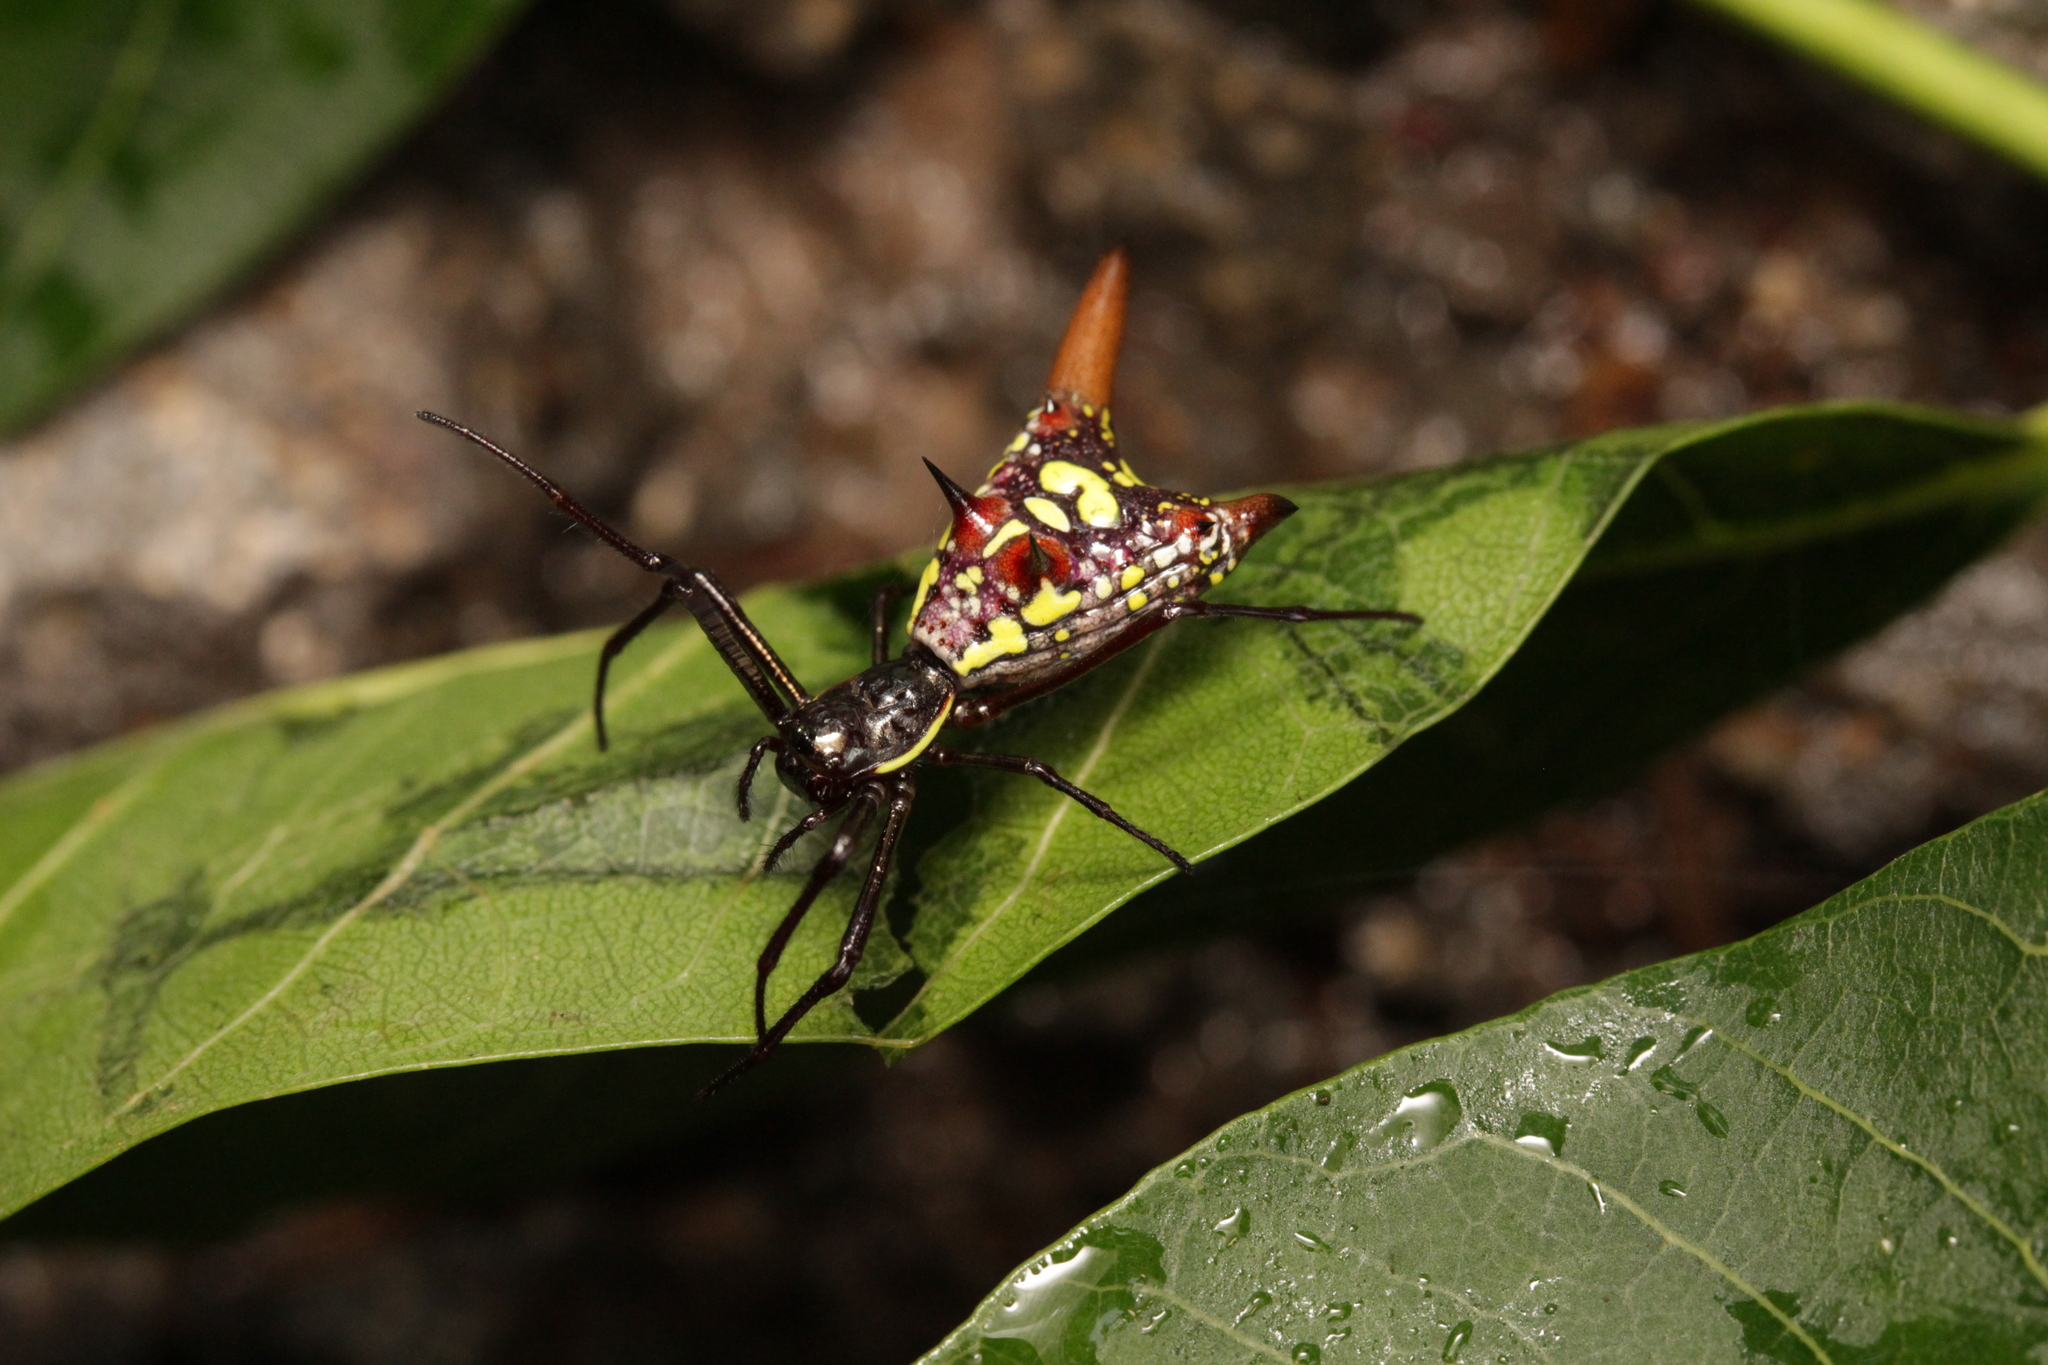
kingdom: Animalia
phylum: Arthropoda
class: Arachnida
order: Araneae
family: Araneidae
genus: Micrathena
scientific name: Micrathena sexspinosa
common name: Orb weavers
